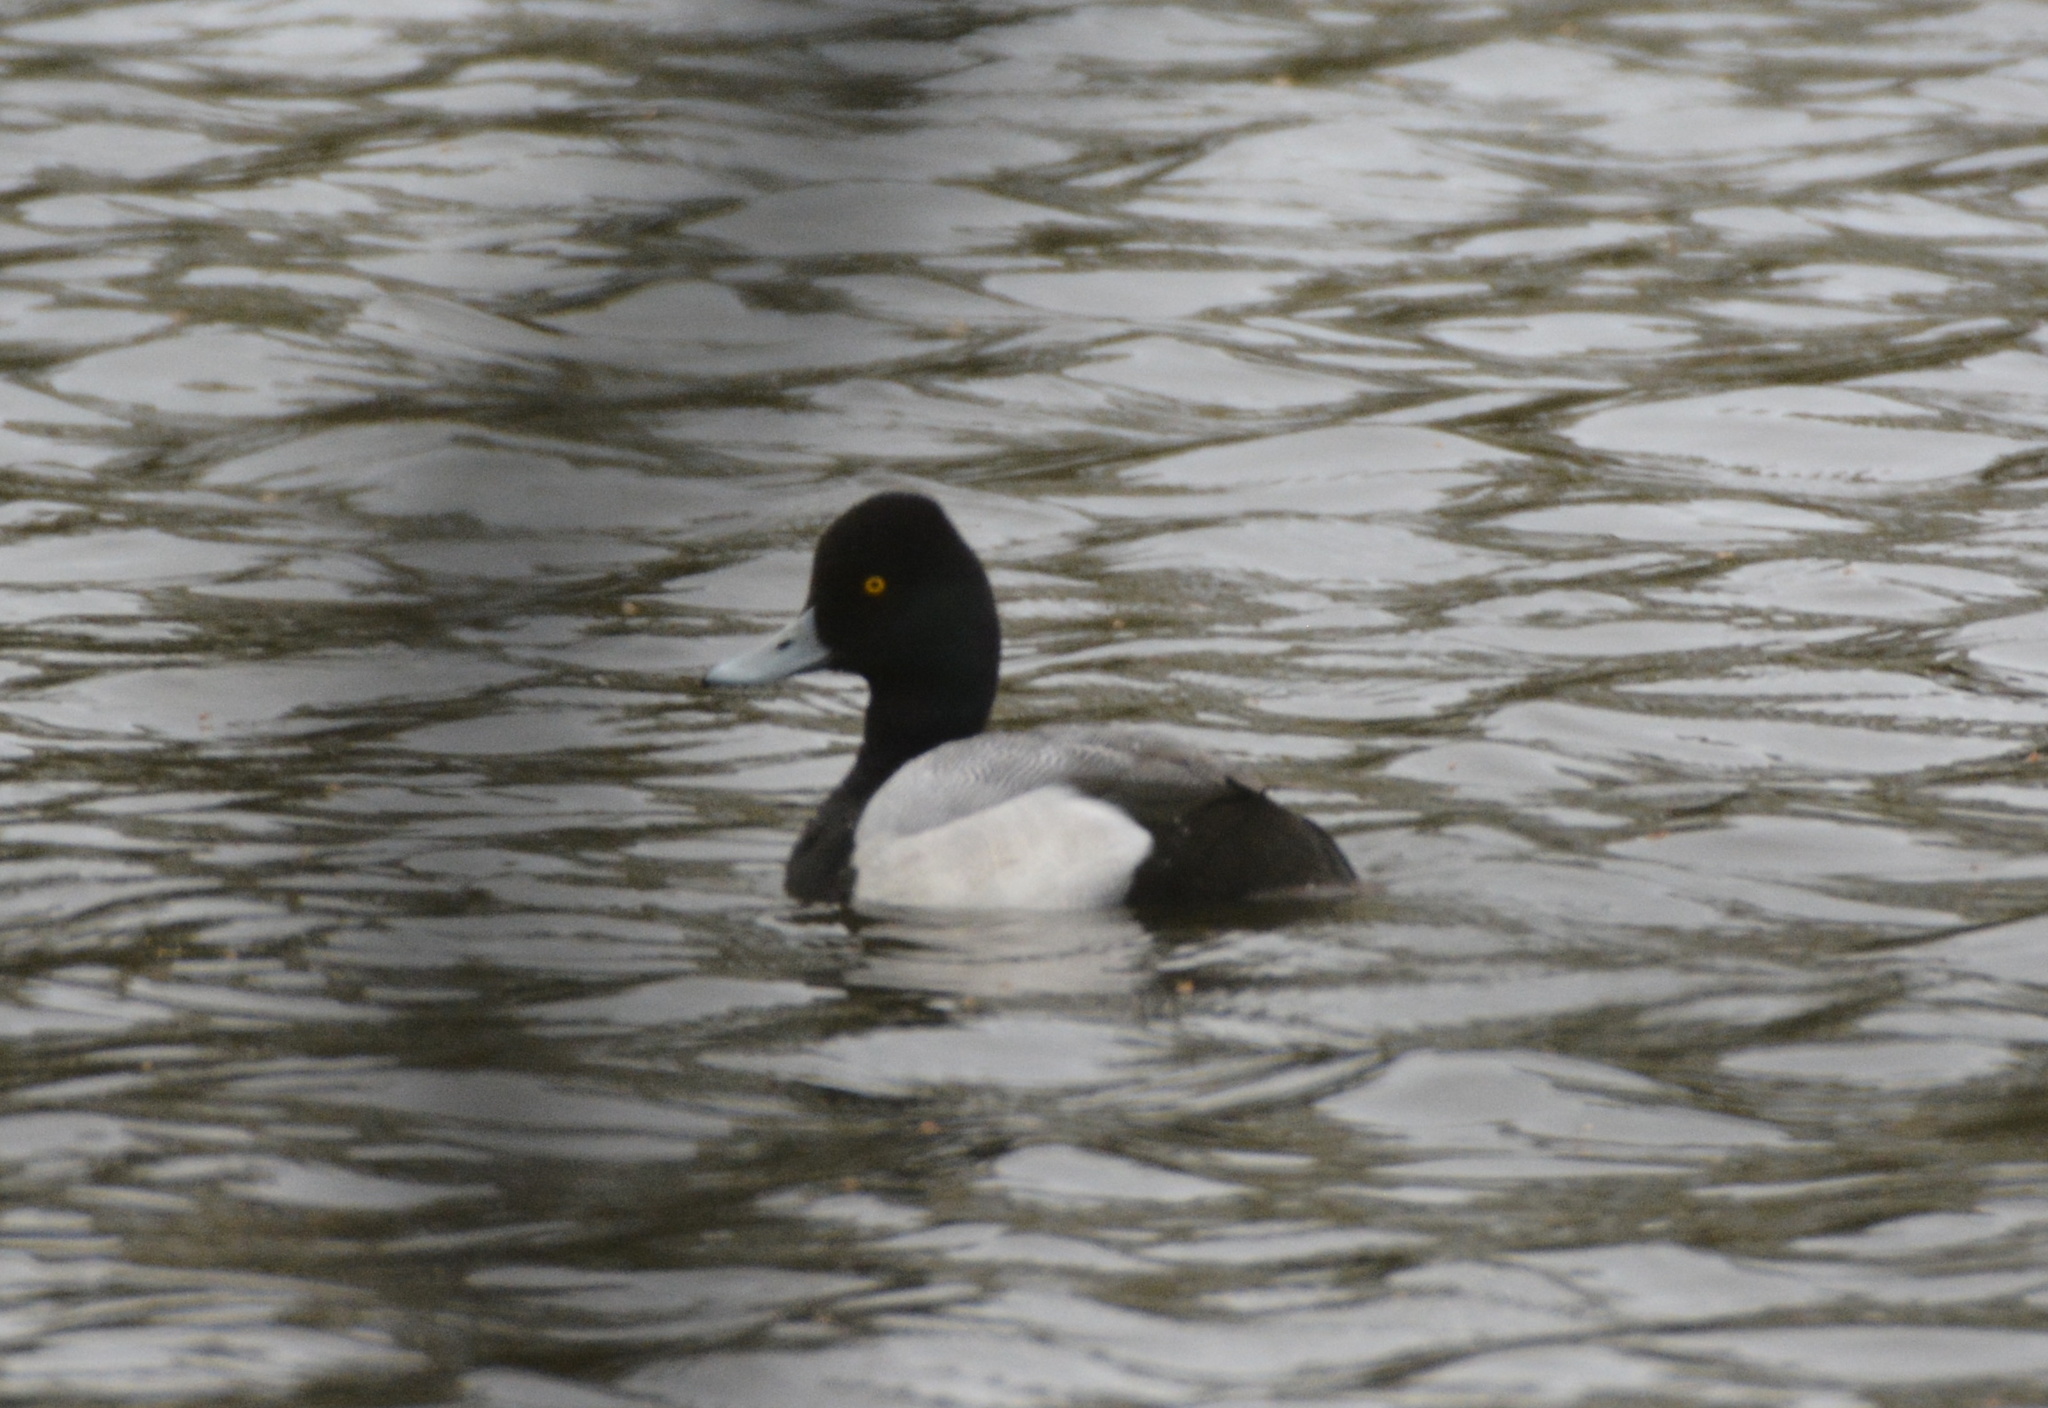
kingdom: Animalia
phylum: Chordata
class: Aves
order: Anseriformes
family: Anatidae
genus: Aythya
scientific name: Aythya affinis
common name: Lesser scaup
